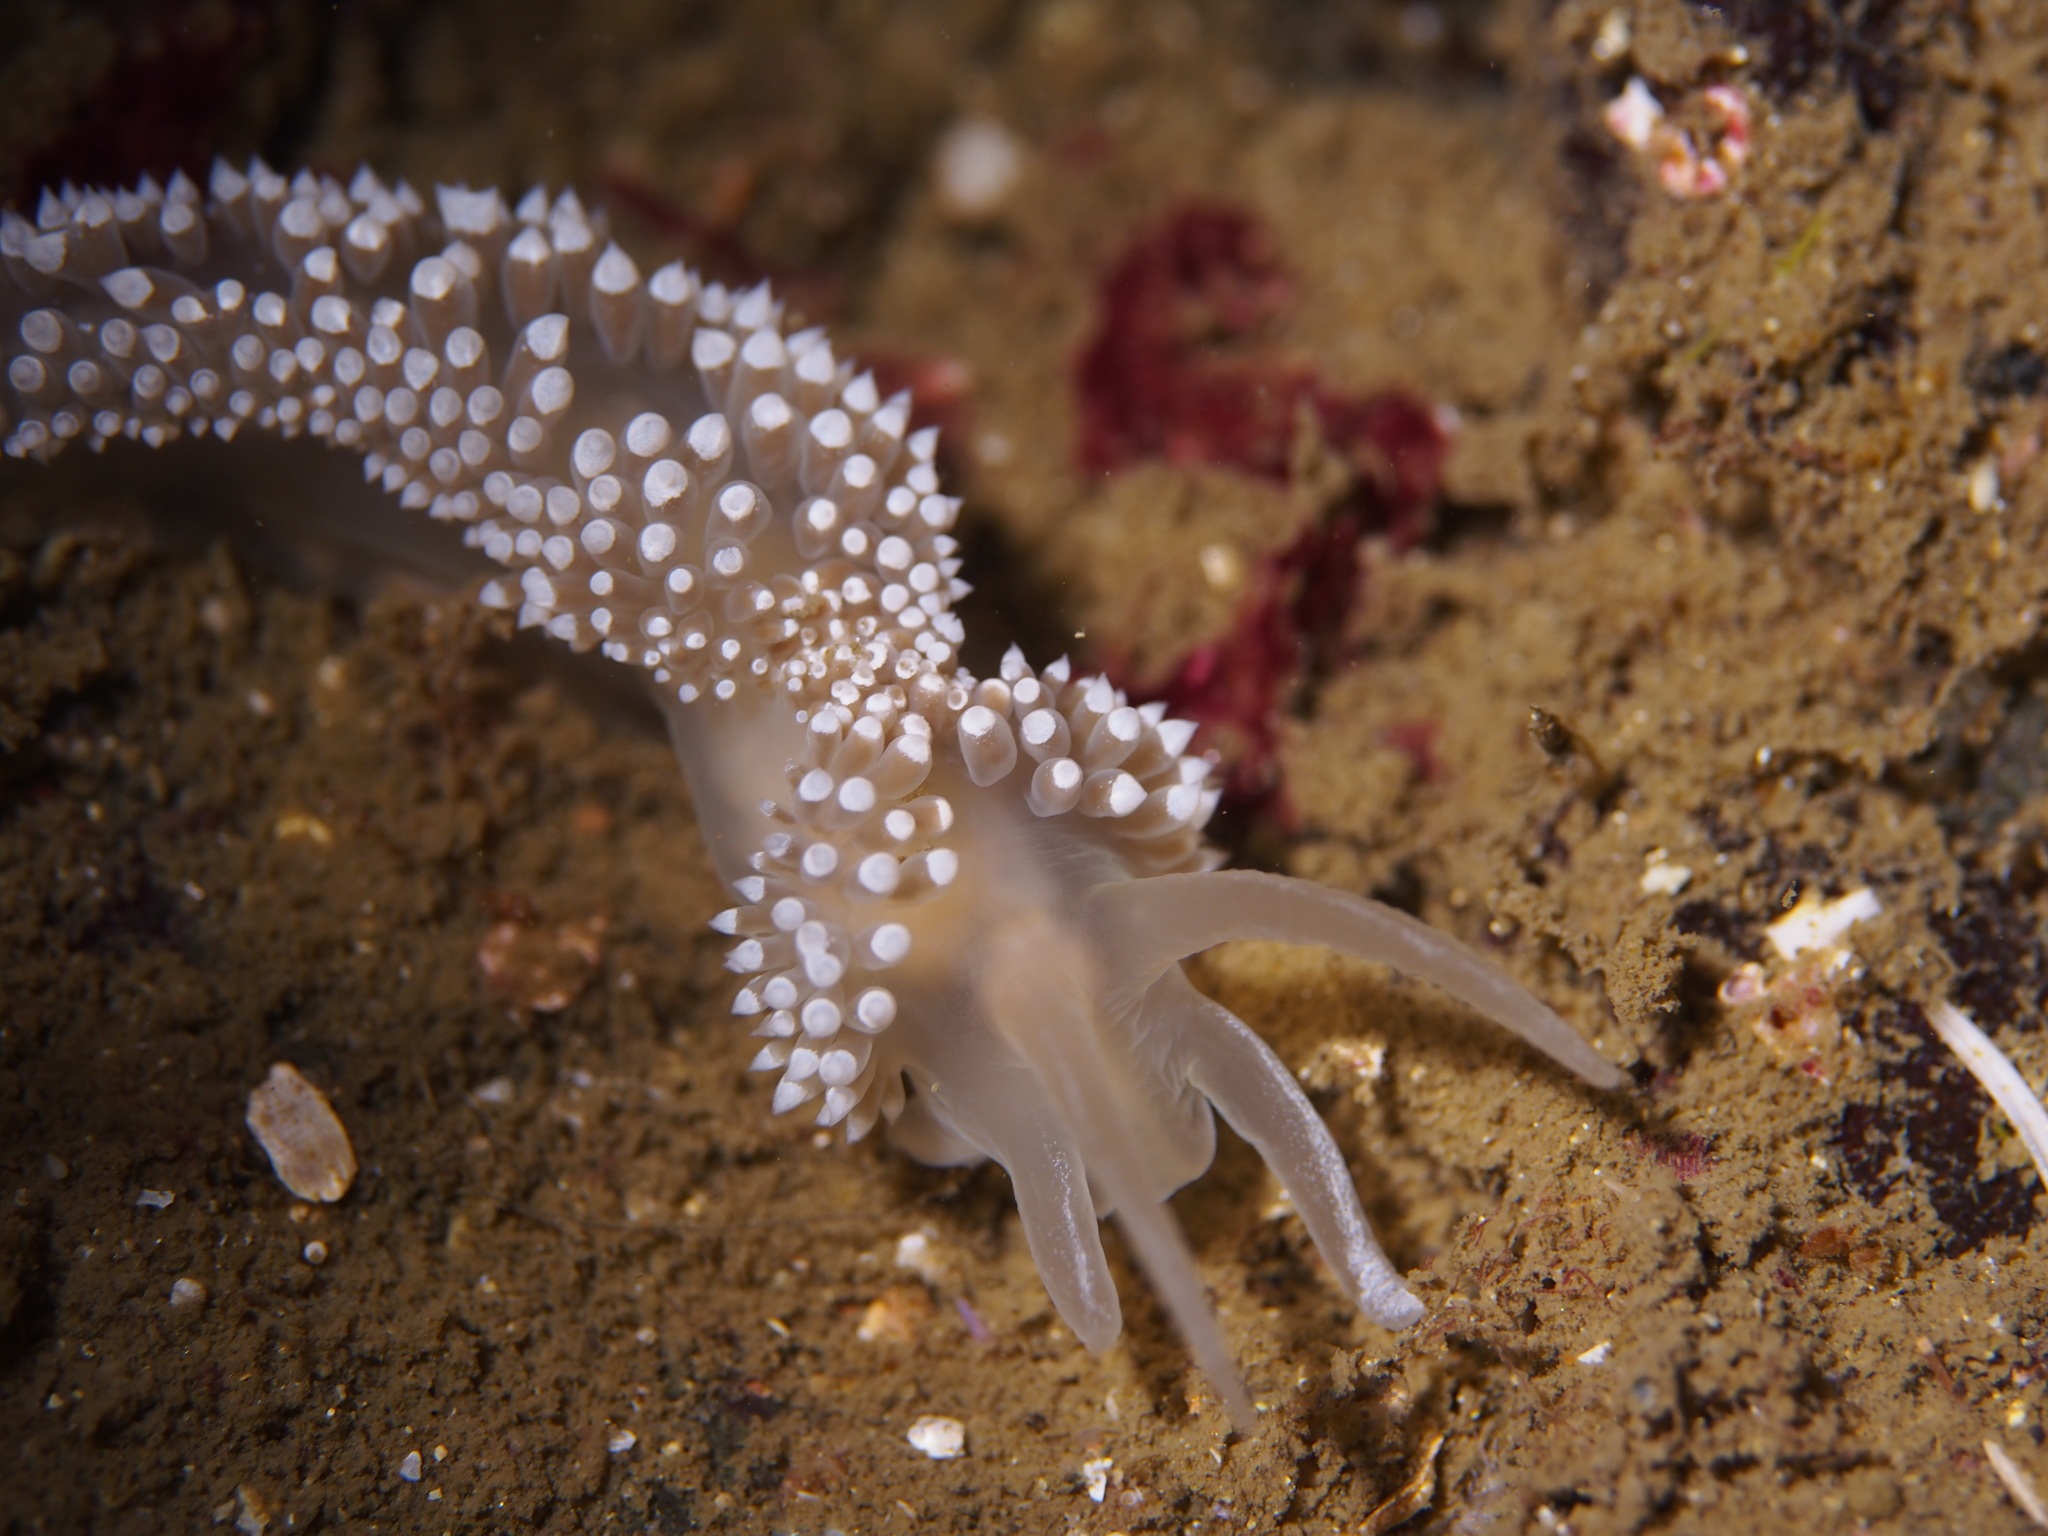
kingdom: Animalia
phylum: Mollusca
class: Gastropoda
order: Nudibranchia
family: Coryphellidae
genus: Coryphella
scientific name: Coryphella verrucosa
